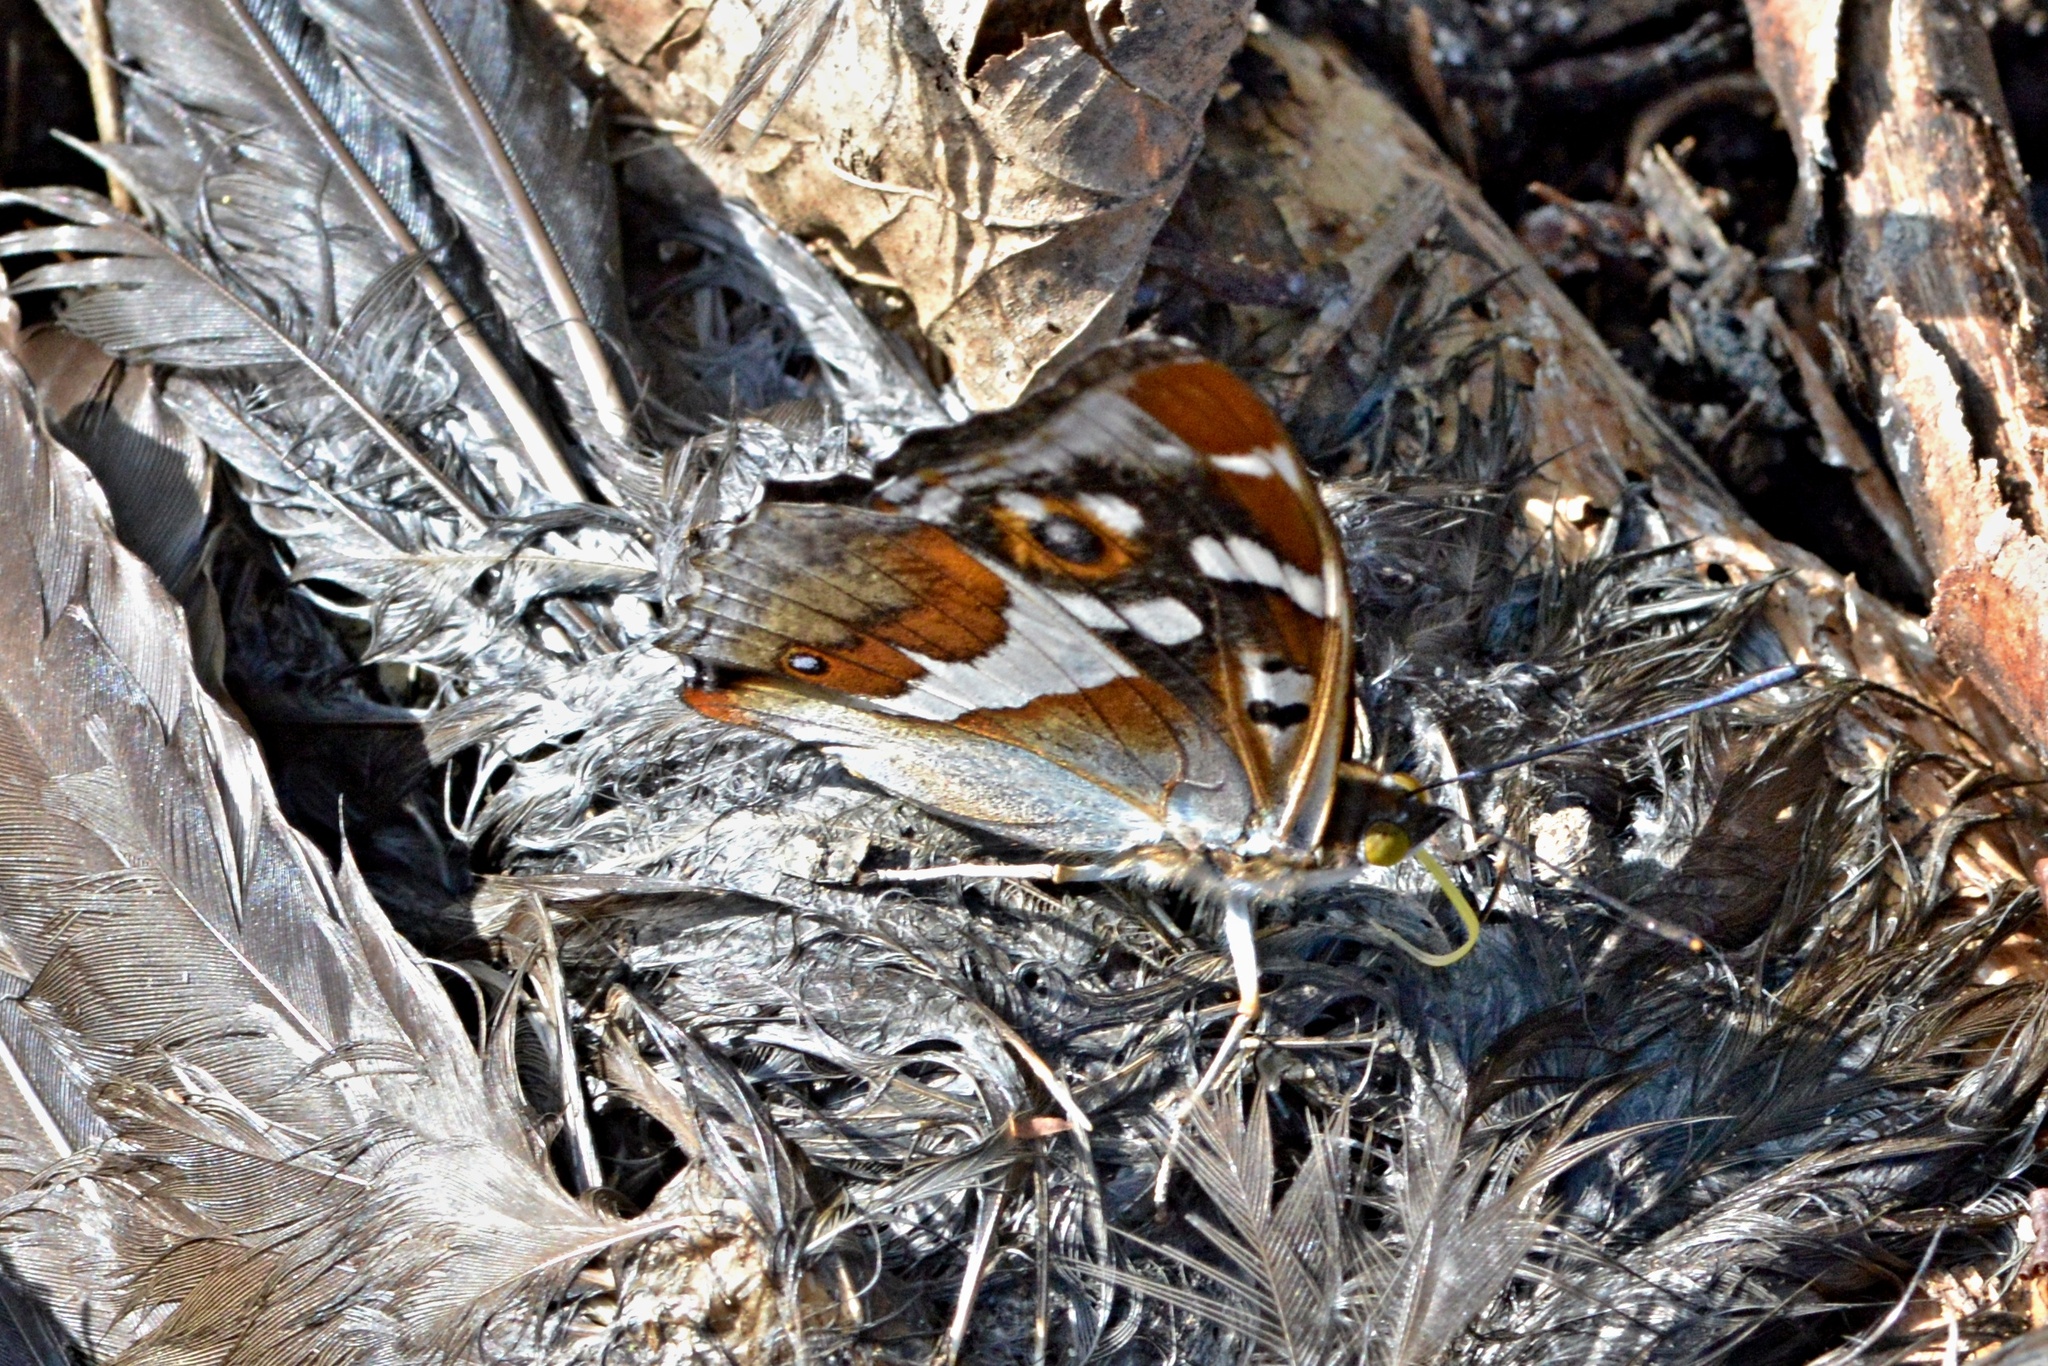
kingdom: Animalia
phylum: Arthropoda
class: Insecta
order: Lepidoptera
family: Nymphalidae
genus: Apatura
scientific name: Apatura iris
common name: Purple emperor
